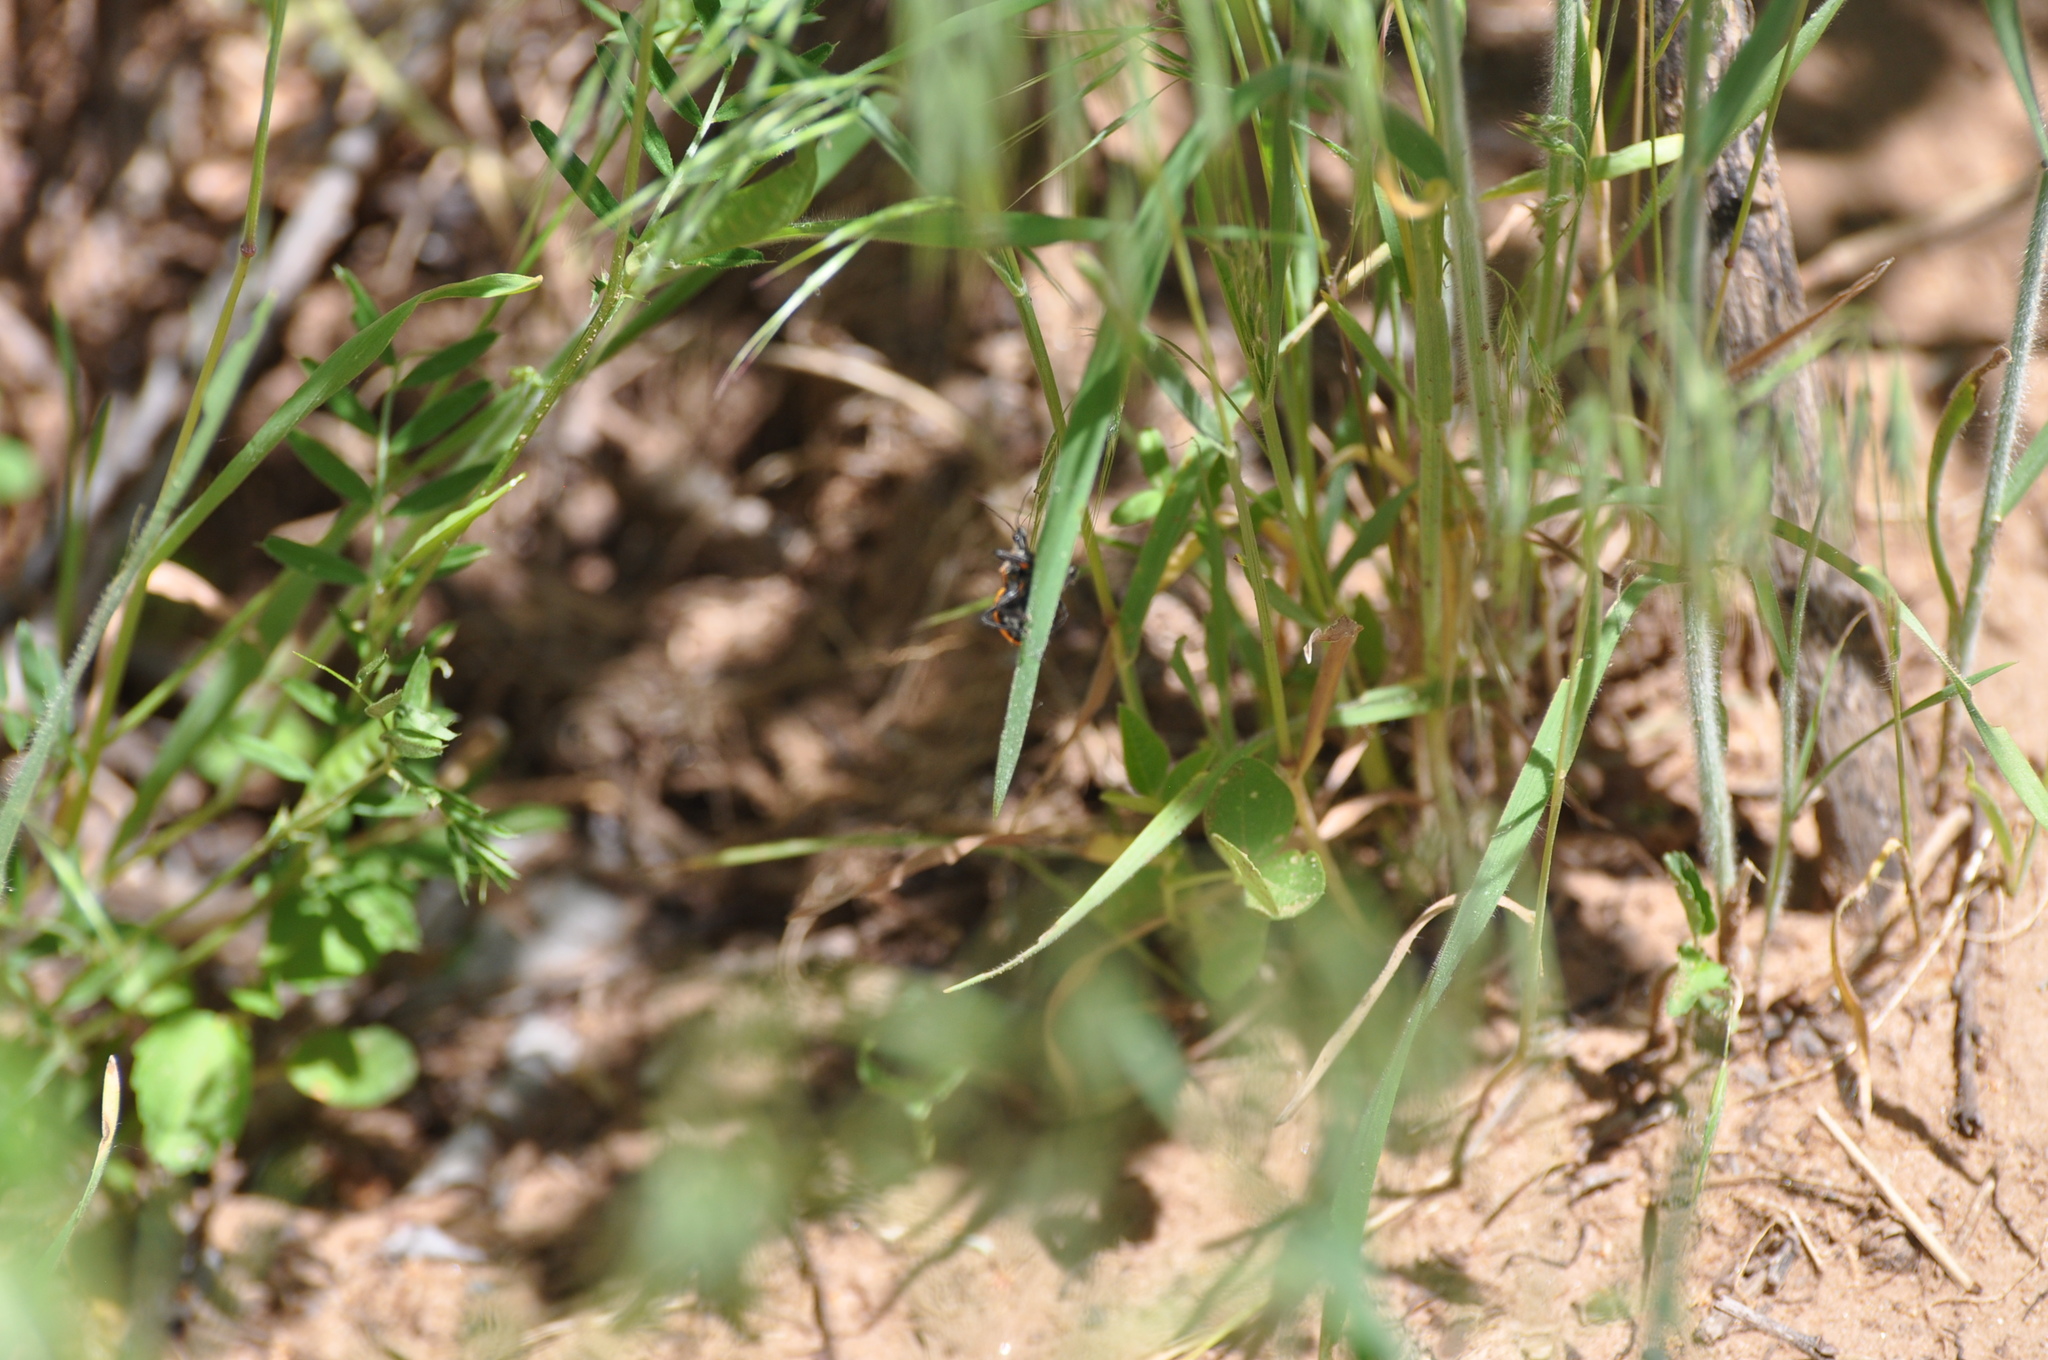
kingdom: Animalia
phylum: Arthropoda
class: Insecta
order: Hemiptera
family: Reduviidae
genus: Apiomerus
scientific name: Apiomerus crassipes
